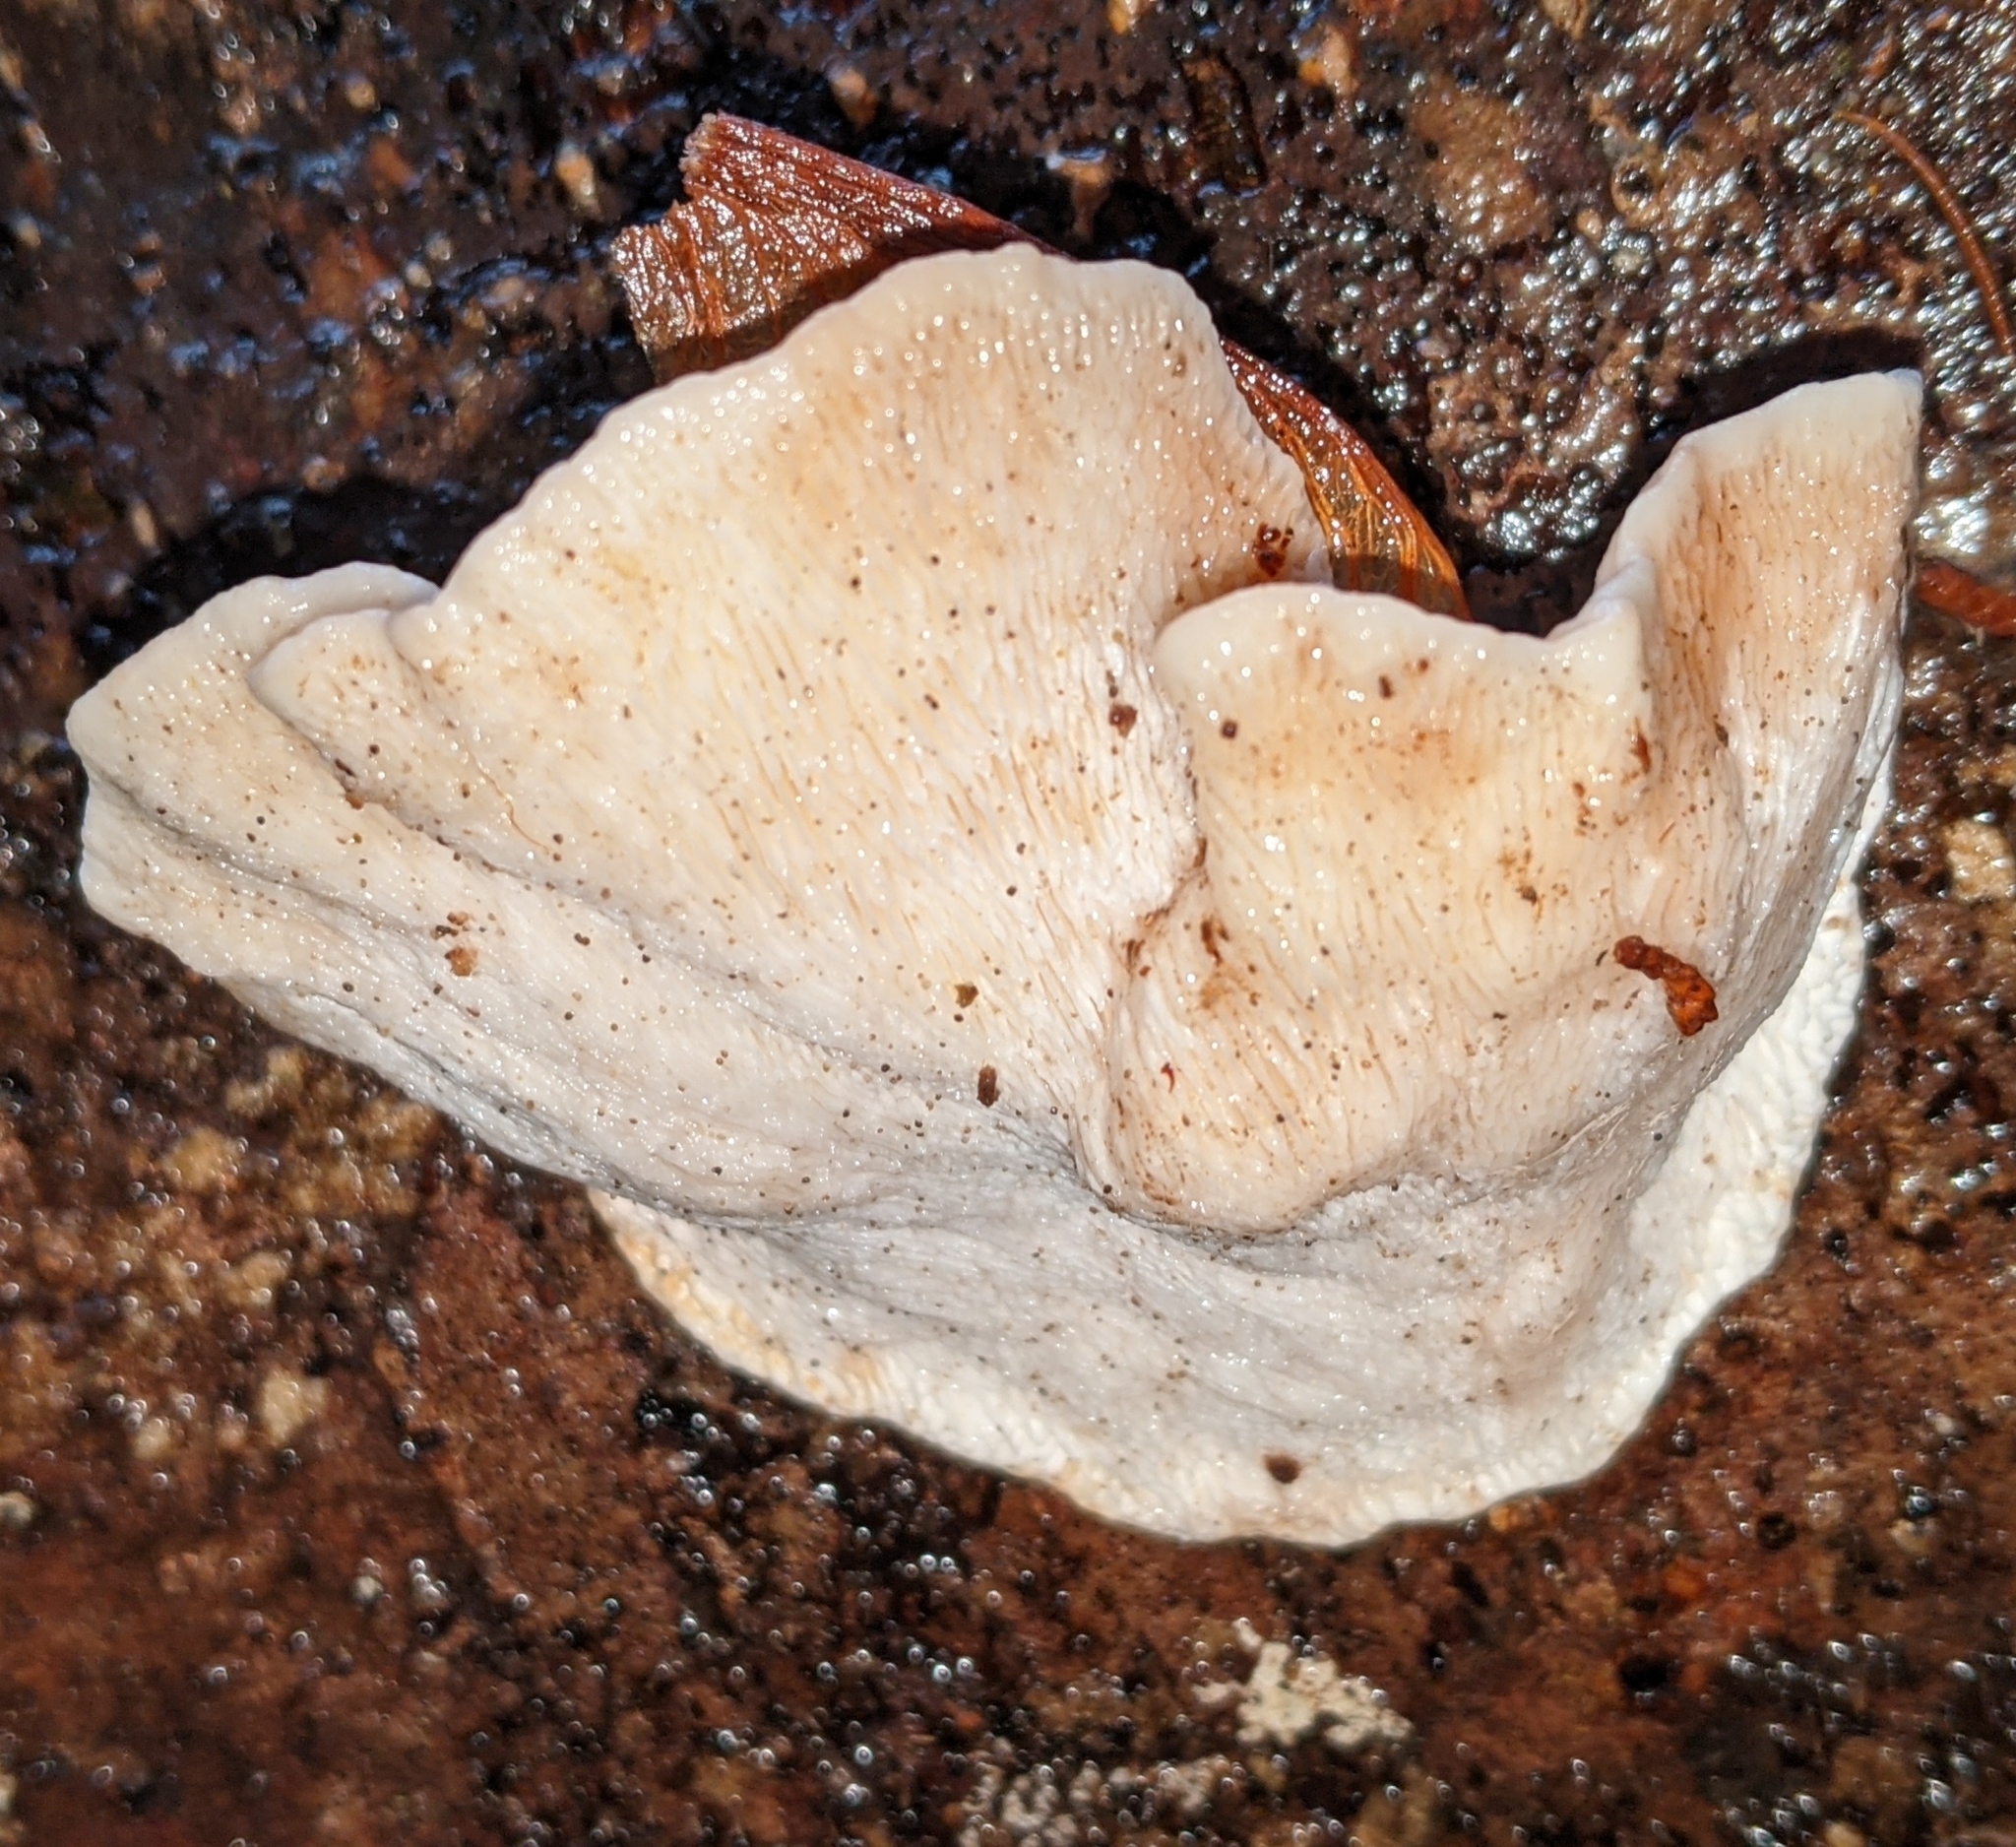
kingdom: Fungi
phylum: Basidiomycota
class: Agaricomycetes
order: Polyporales
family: Polyporaceae
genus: Trametes
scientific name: Trametes gibbosa
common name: Lumpy bracket
